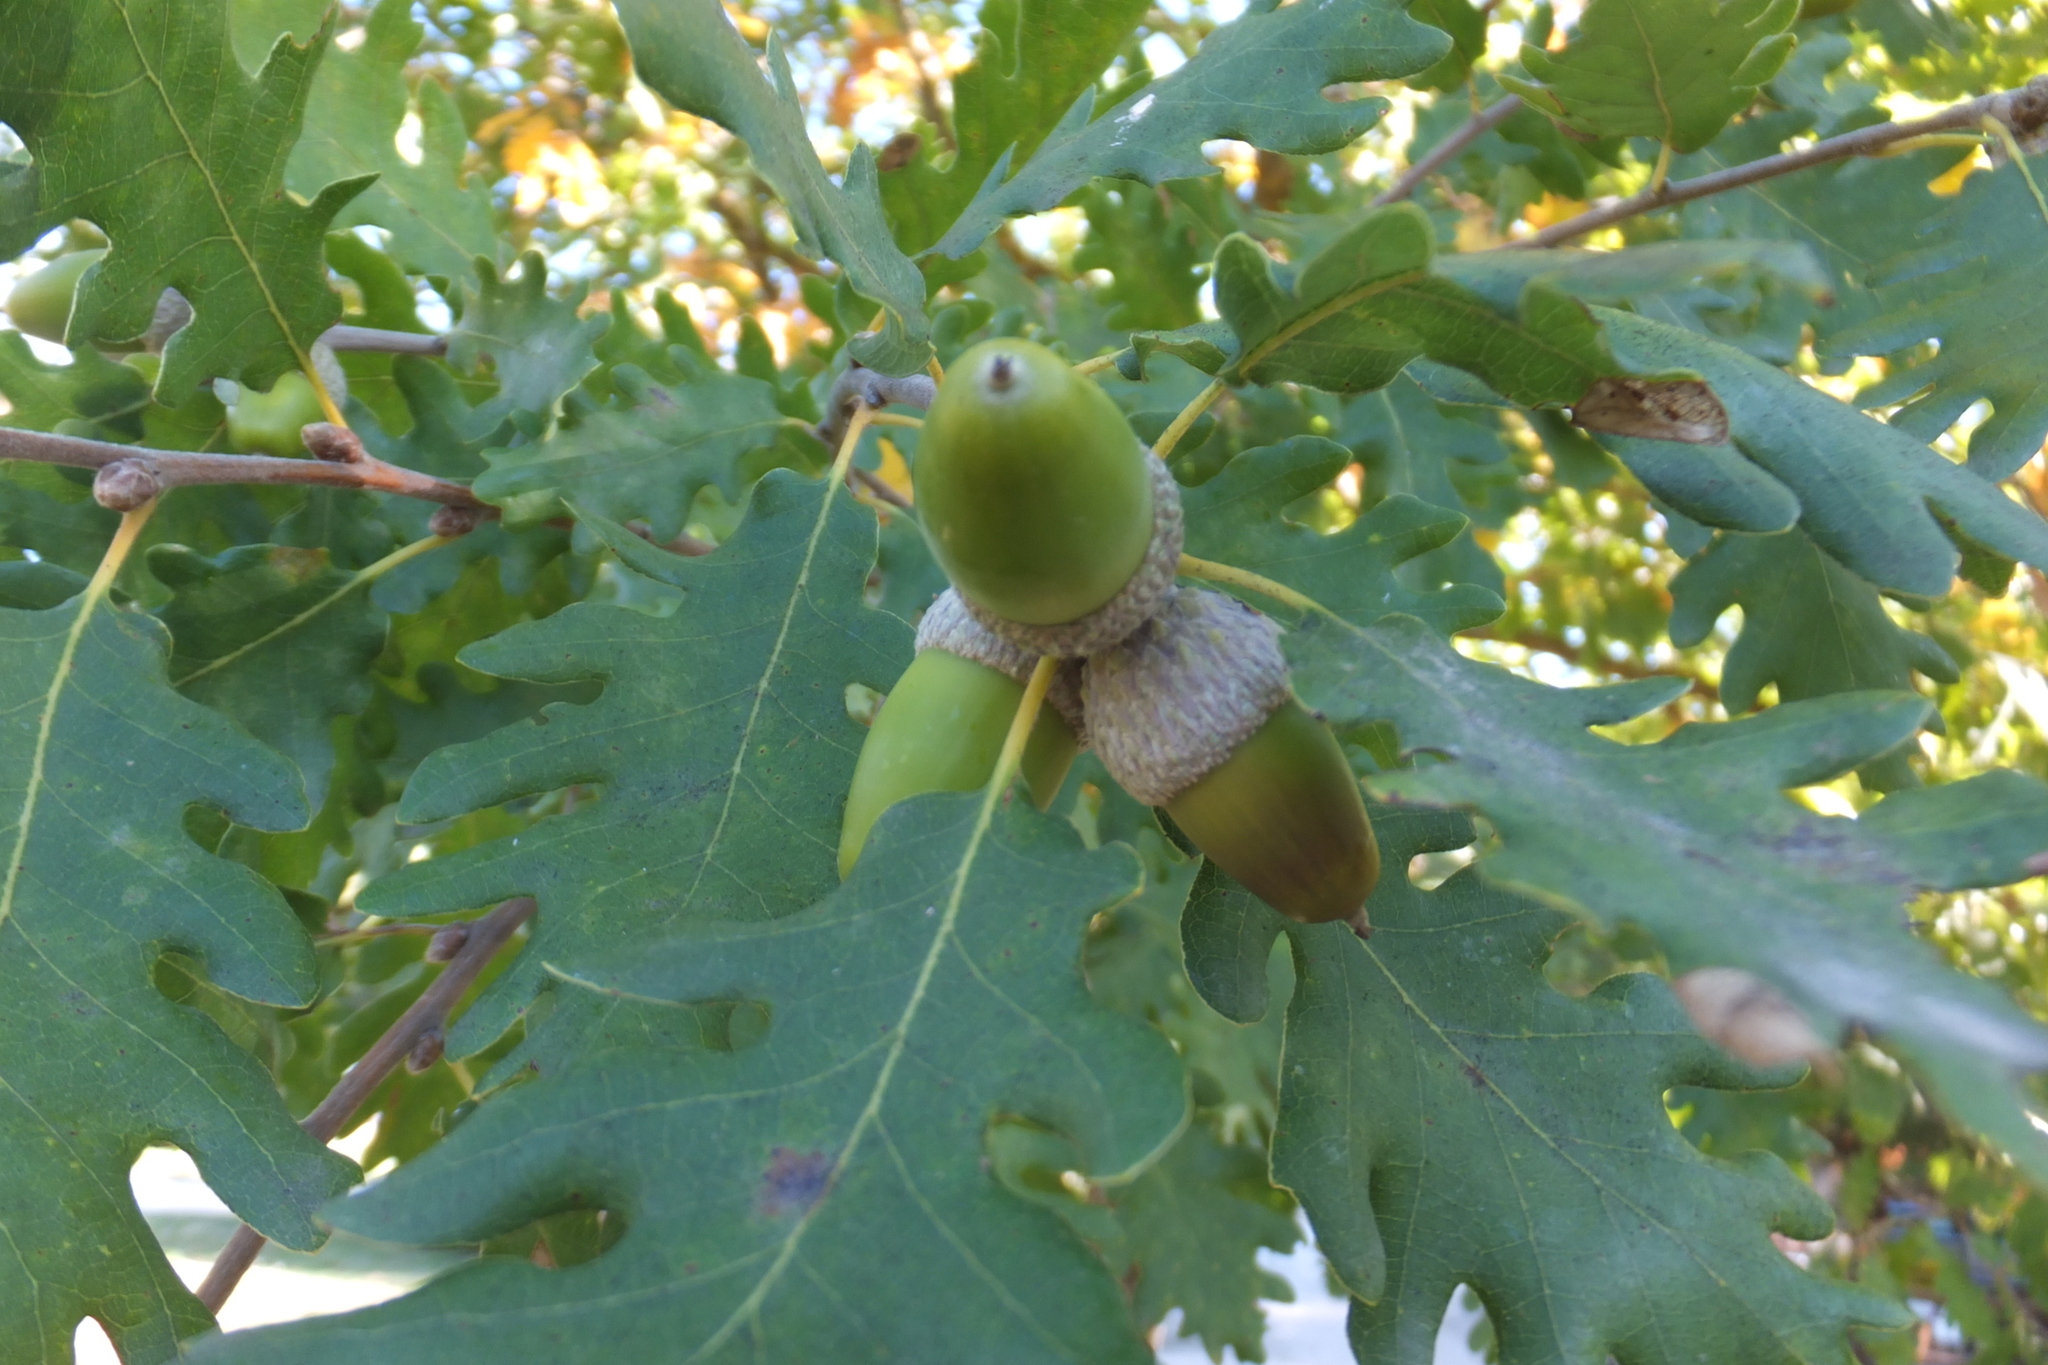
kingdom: Plantae
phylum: Tracheophyta
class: Magnoliopsida
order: Fagales
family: Fagaceae
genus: Quercus
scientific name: Quercus robur
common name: Pedunculate oak
